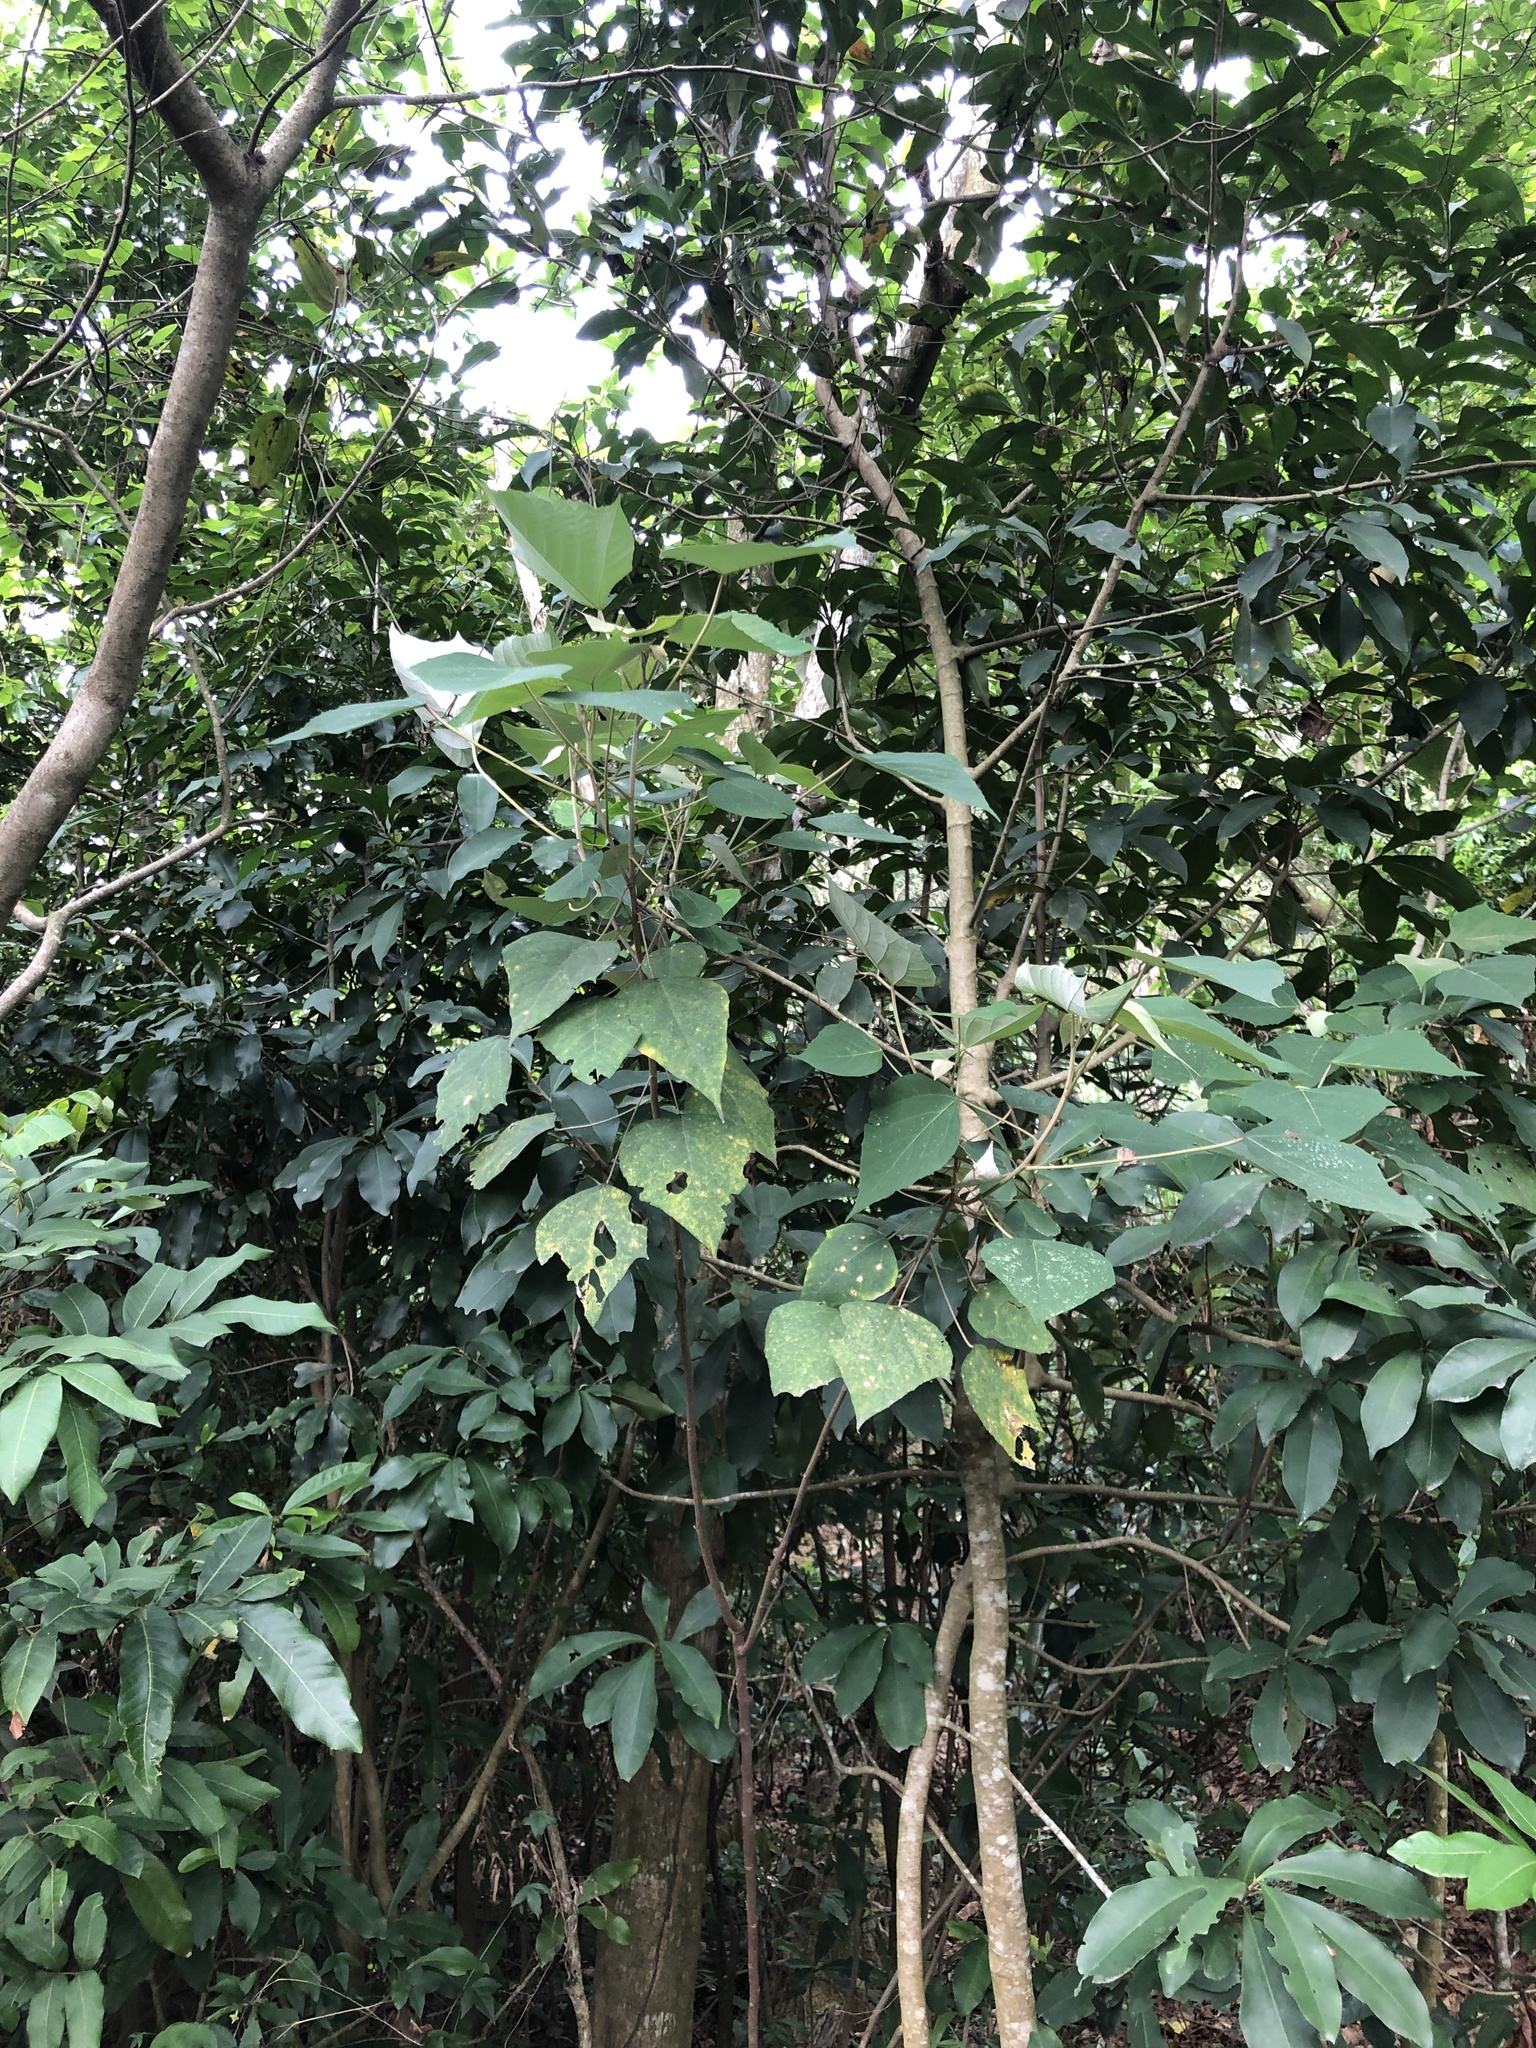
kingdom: Plantae
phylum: Tracheophyta
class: Magnoliopsida
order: Malpighiales
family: Euphorbiaceae
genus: Mallotus
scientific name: Mallotus paniculatus
